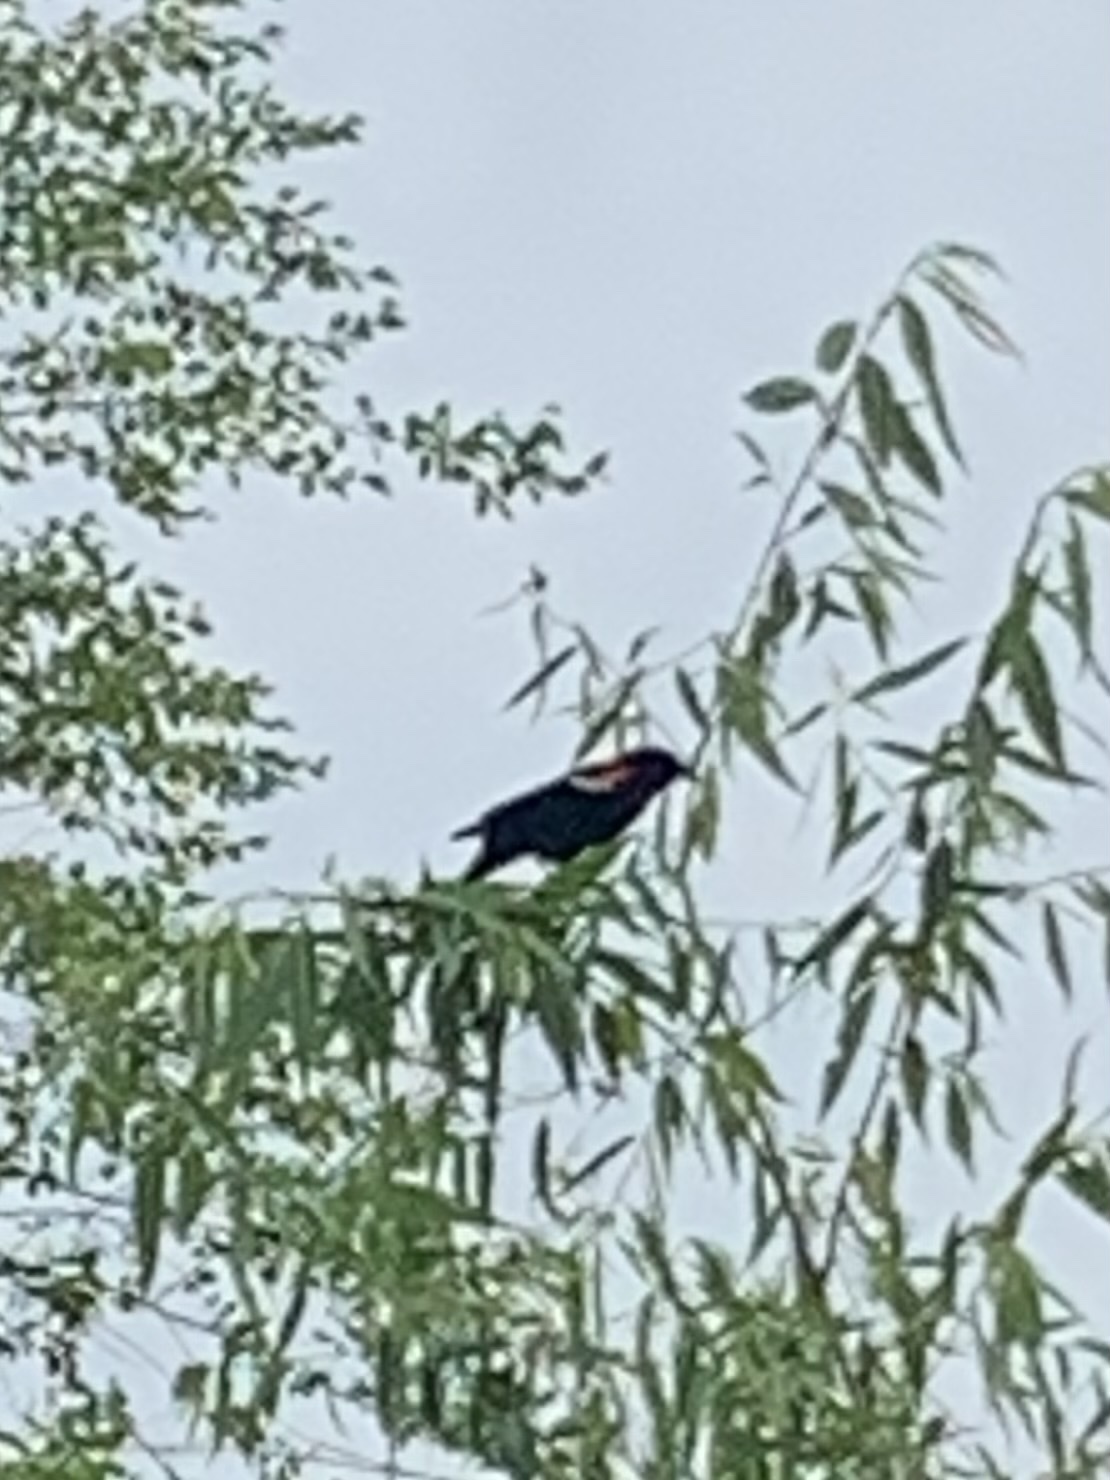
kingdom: Animalia
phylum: Chordata
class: Aves
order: Passeriformes
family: Icteridae
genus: Agelaius
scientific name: Agelaius phoeniceus
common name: Red-winged blackbird
